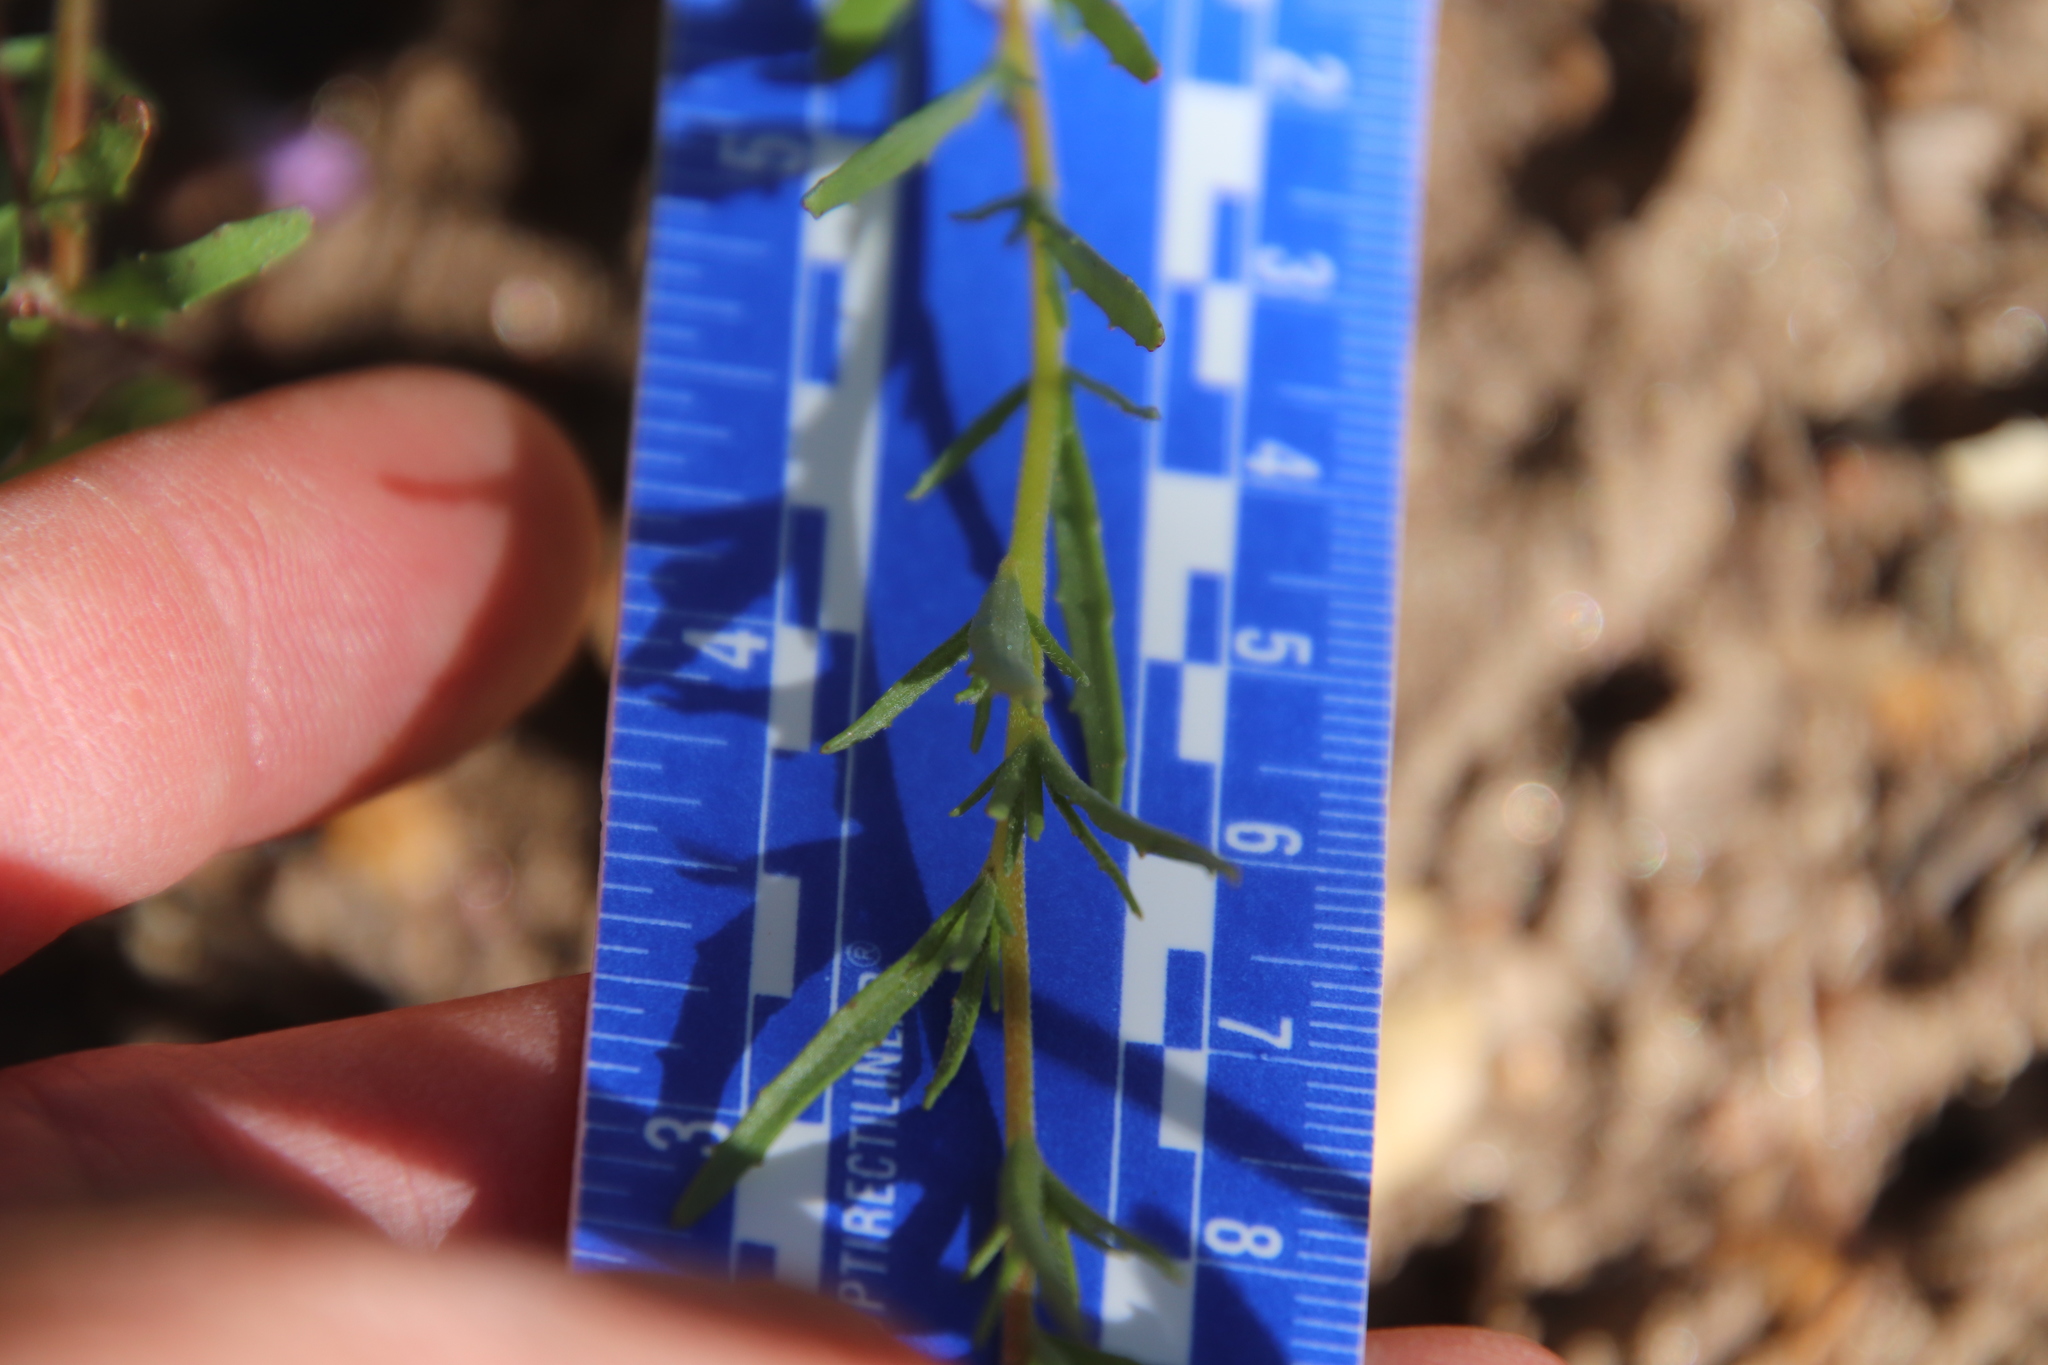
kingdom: Plantae
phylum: Tracheophyta
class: Magnoliopsida
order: Myrtales
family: Onagraceae
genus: Camissonia
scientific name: Camissonia strigulosa
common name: Contorted-primrose
